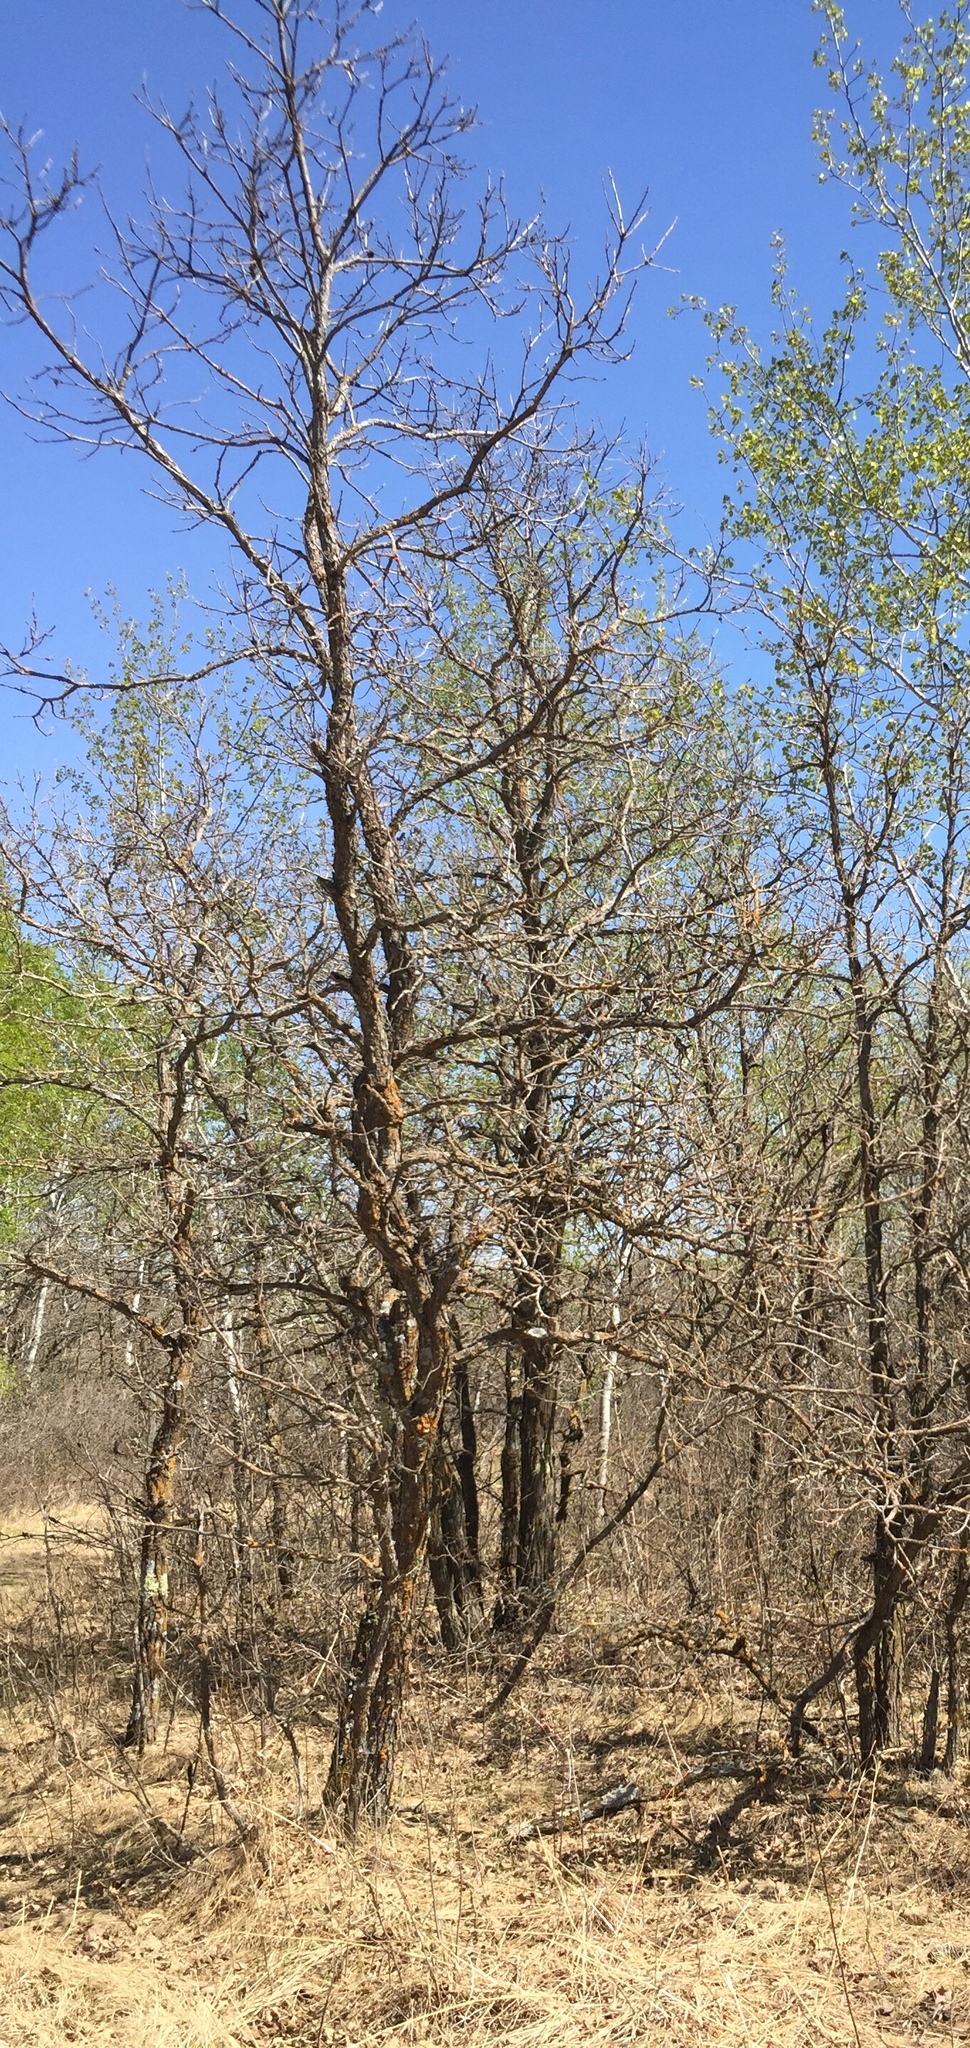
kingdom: Plantae
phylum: Tracheophyta
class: Magnoliopsida
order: Fagales
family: Fagaceae
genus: Quercus
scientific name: Quercus macrocarpa
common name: Bur oak
